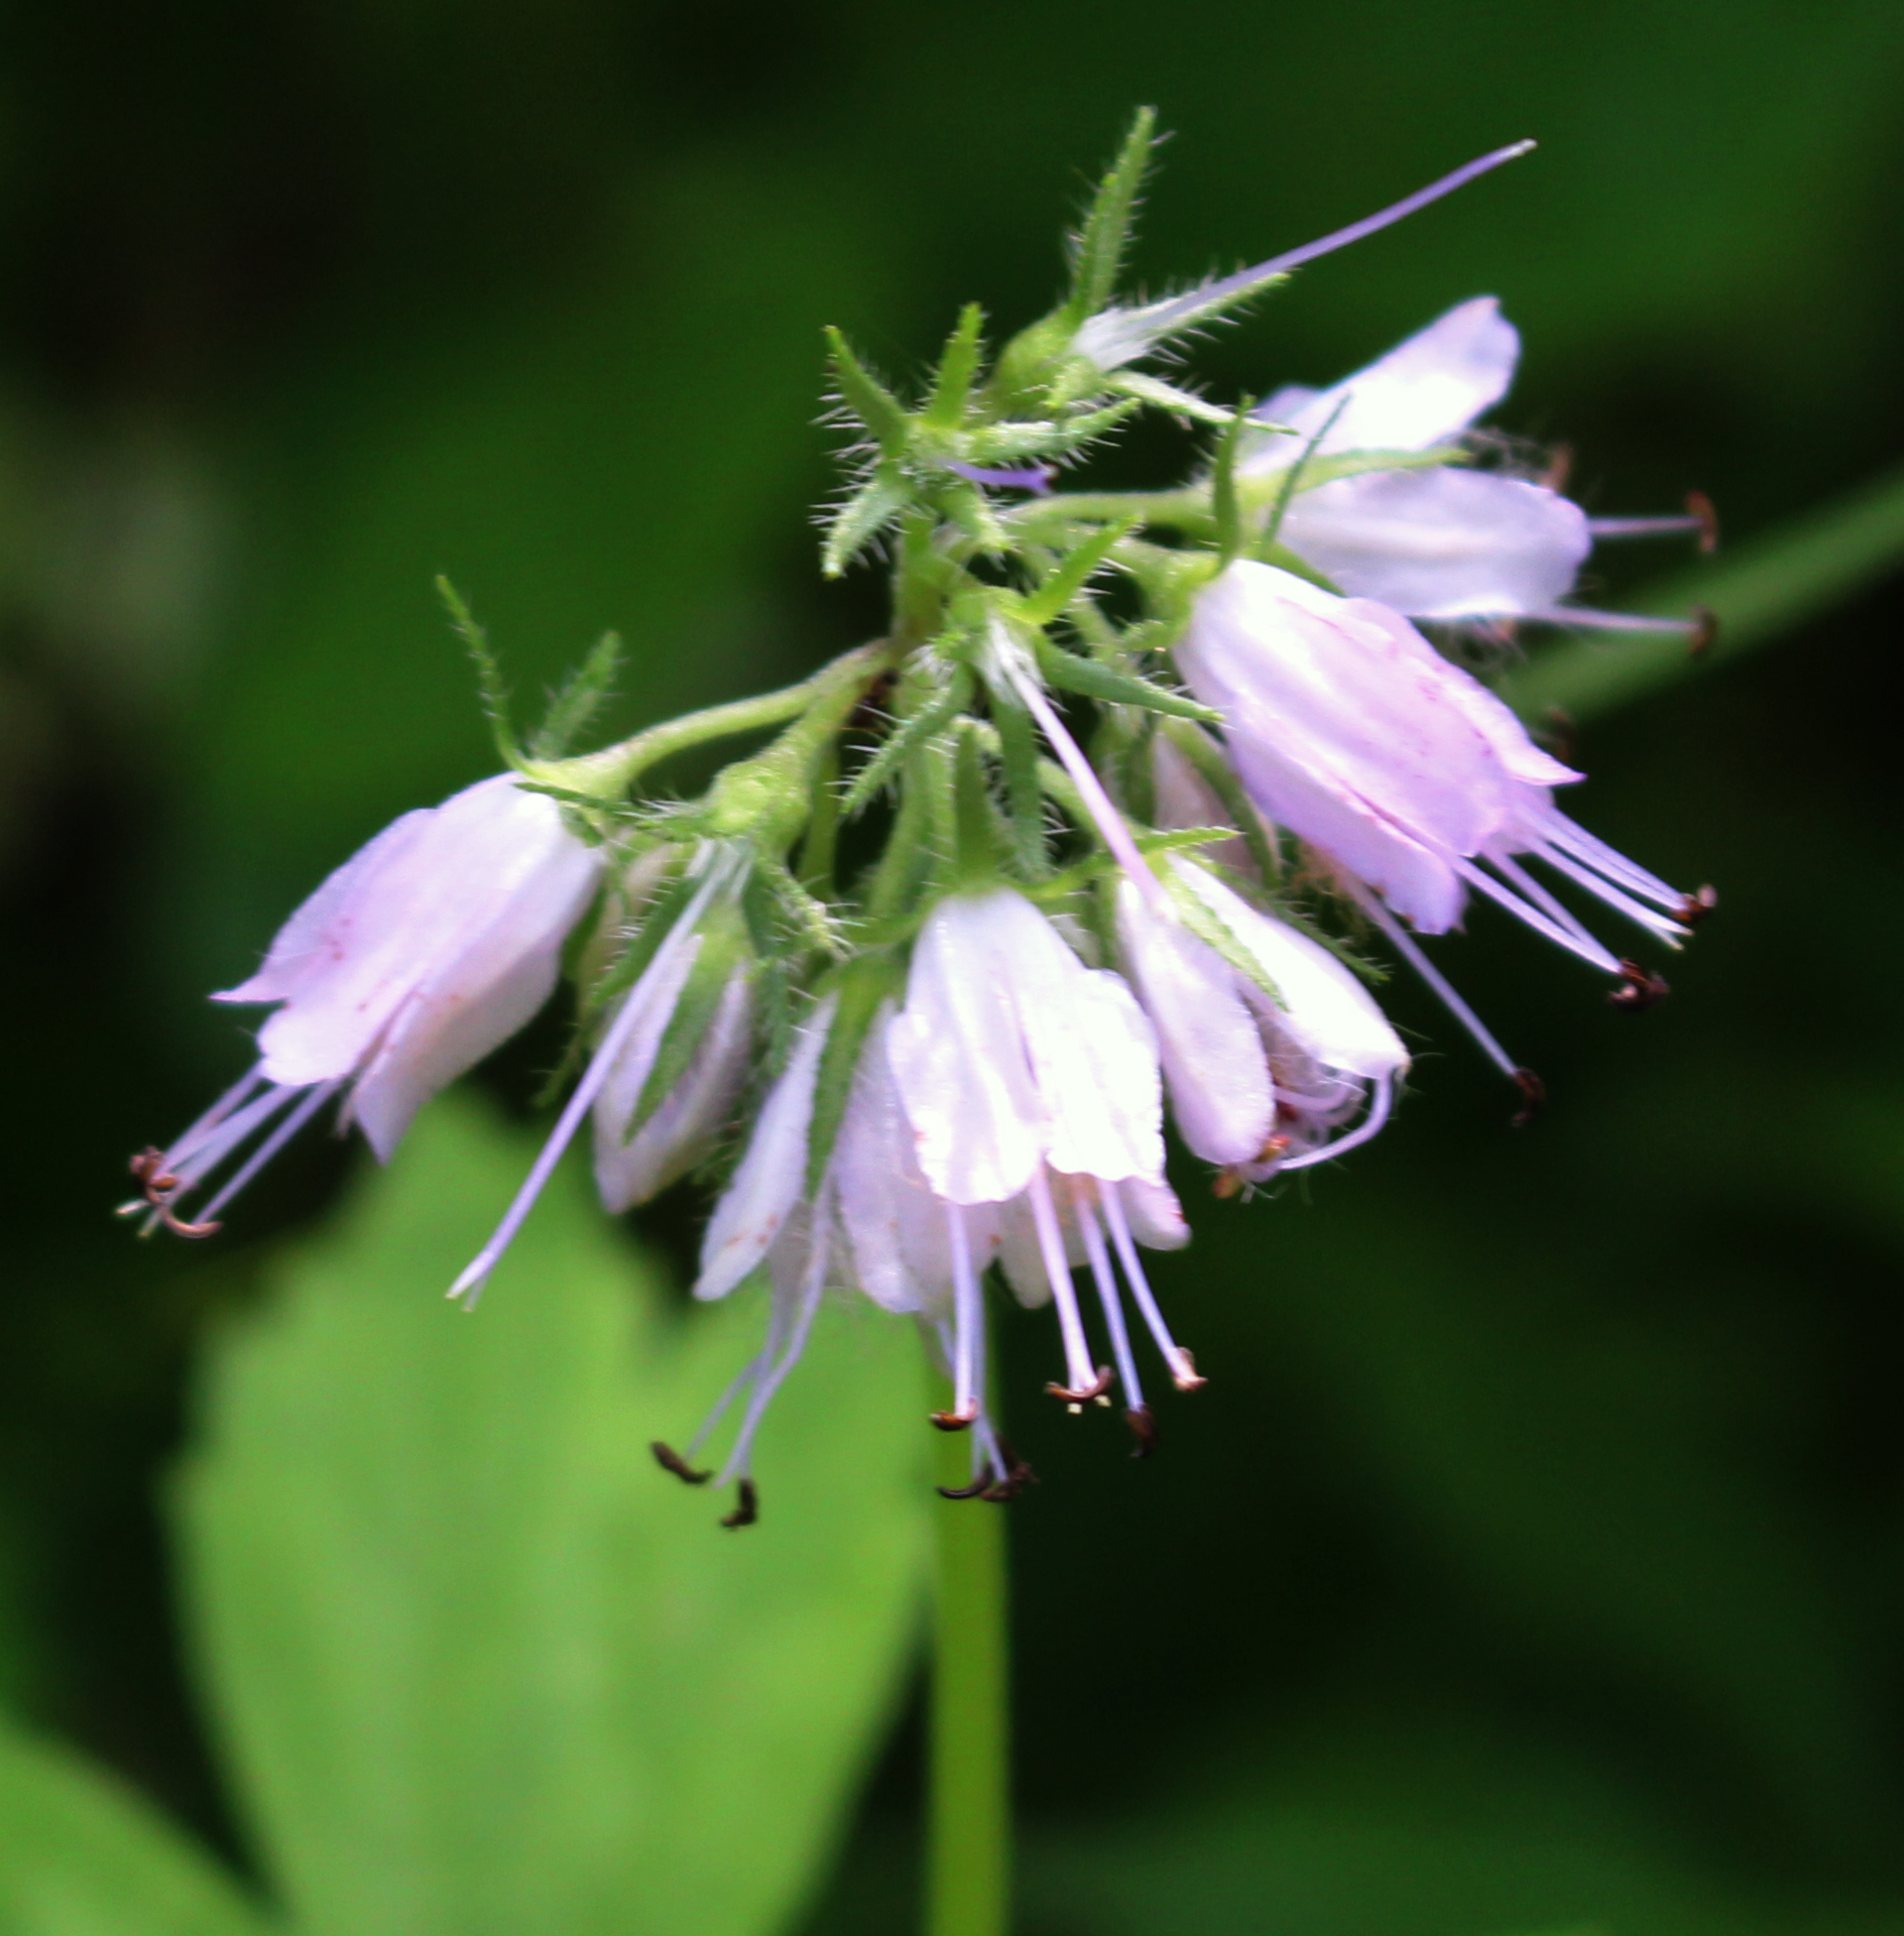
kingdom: Plantae
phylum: Tracheophyta
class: Magnoliopsida
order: Boraginales
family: Hydrophyllaceae
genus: Hydrophyllum
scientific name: Hydrophyllum virginianum
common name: Virginia waterleaf
